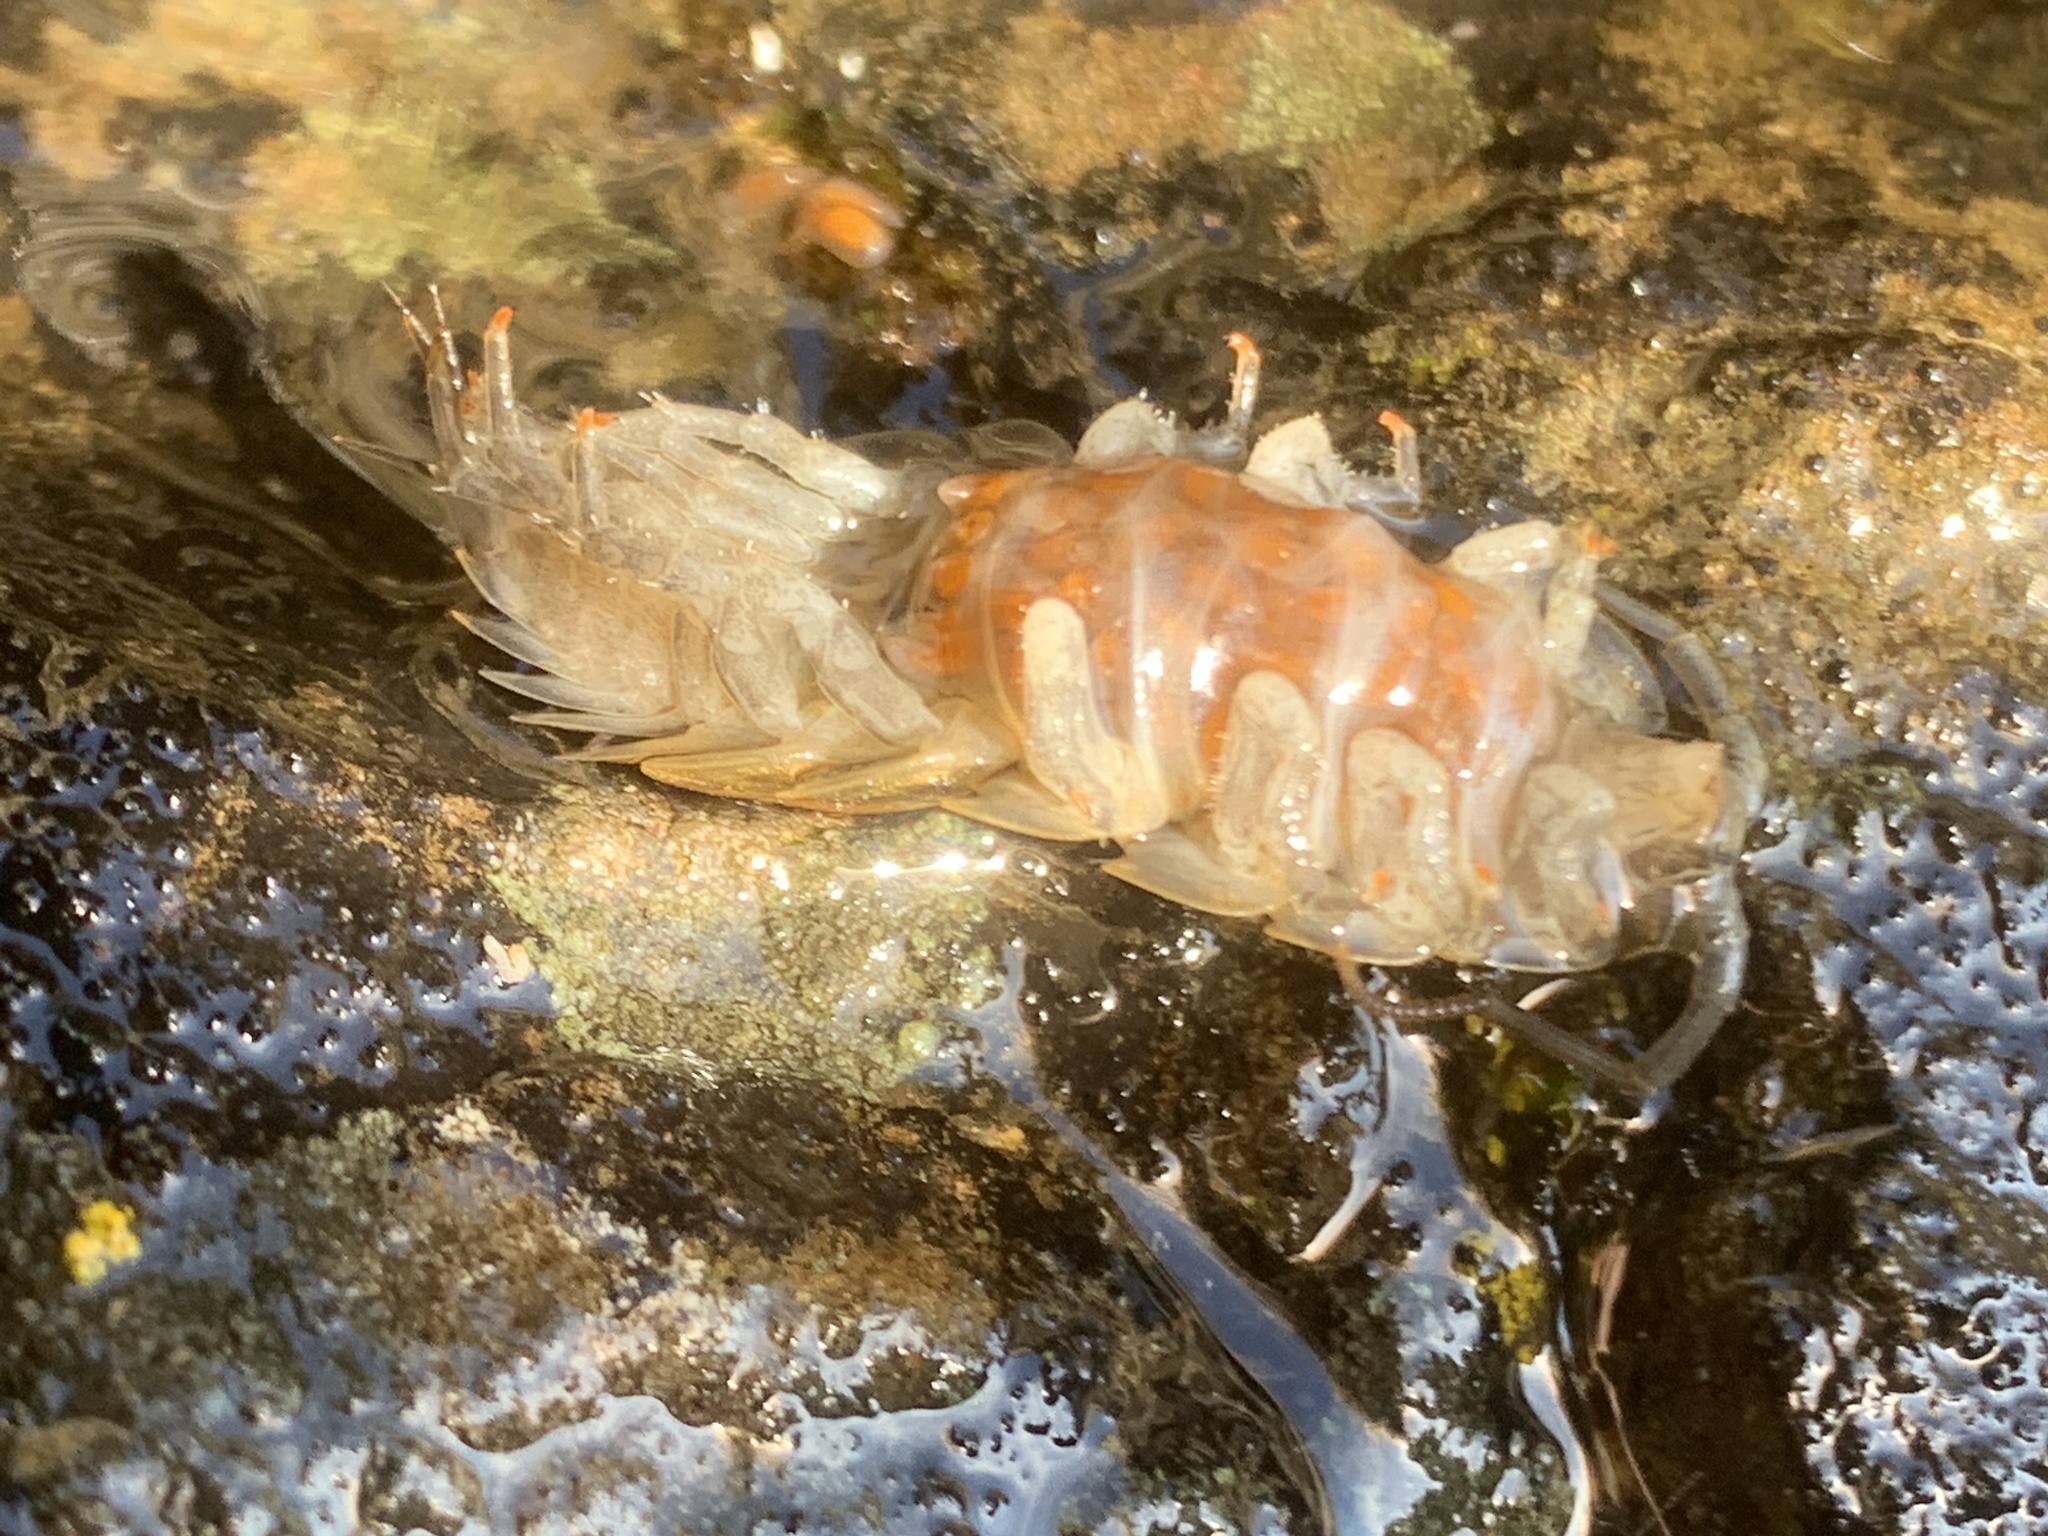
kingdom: Animalia
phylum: Arthropoda
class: Malacostraca
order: Isopoda
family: Ligiidae
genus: Ligia
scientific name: Ligia pallasii
